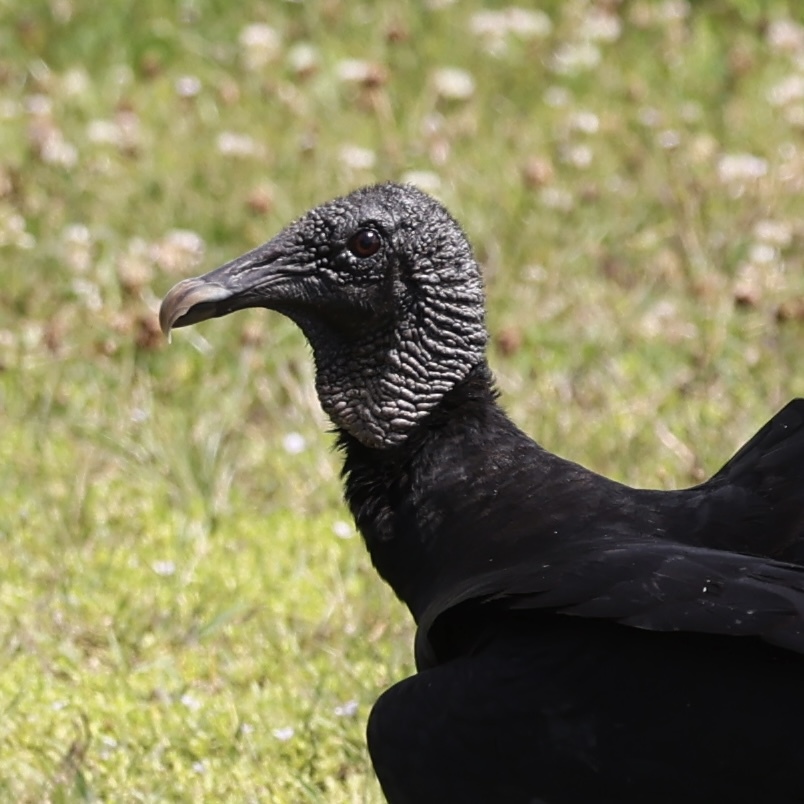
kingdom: Animalia
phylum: Chordata
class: Aves
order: Accipitriformes
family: Cathartidae
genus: Coragyps
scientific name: Coragyps atratus
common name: Black vulture
